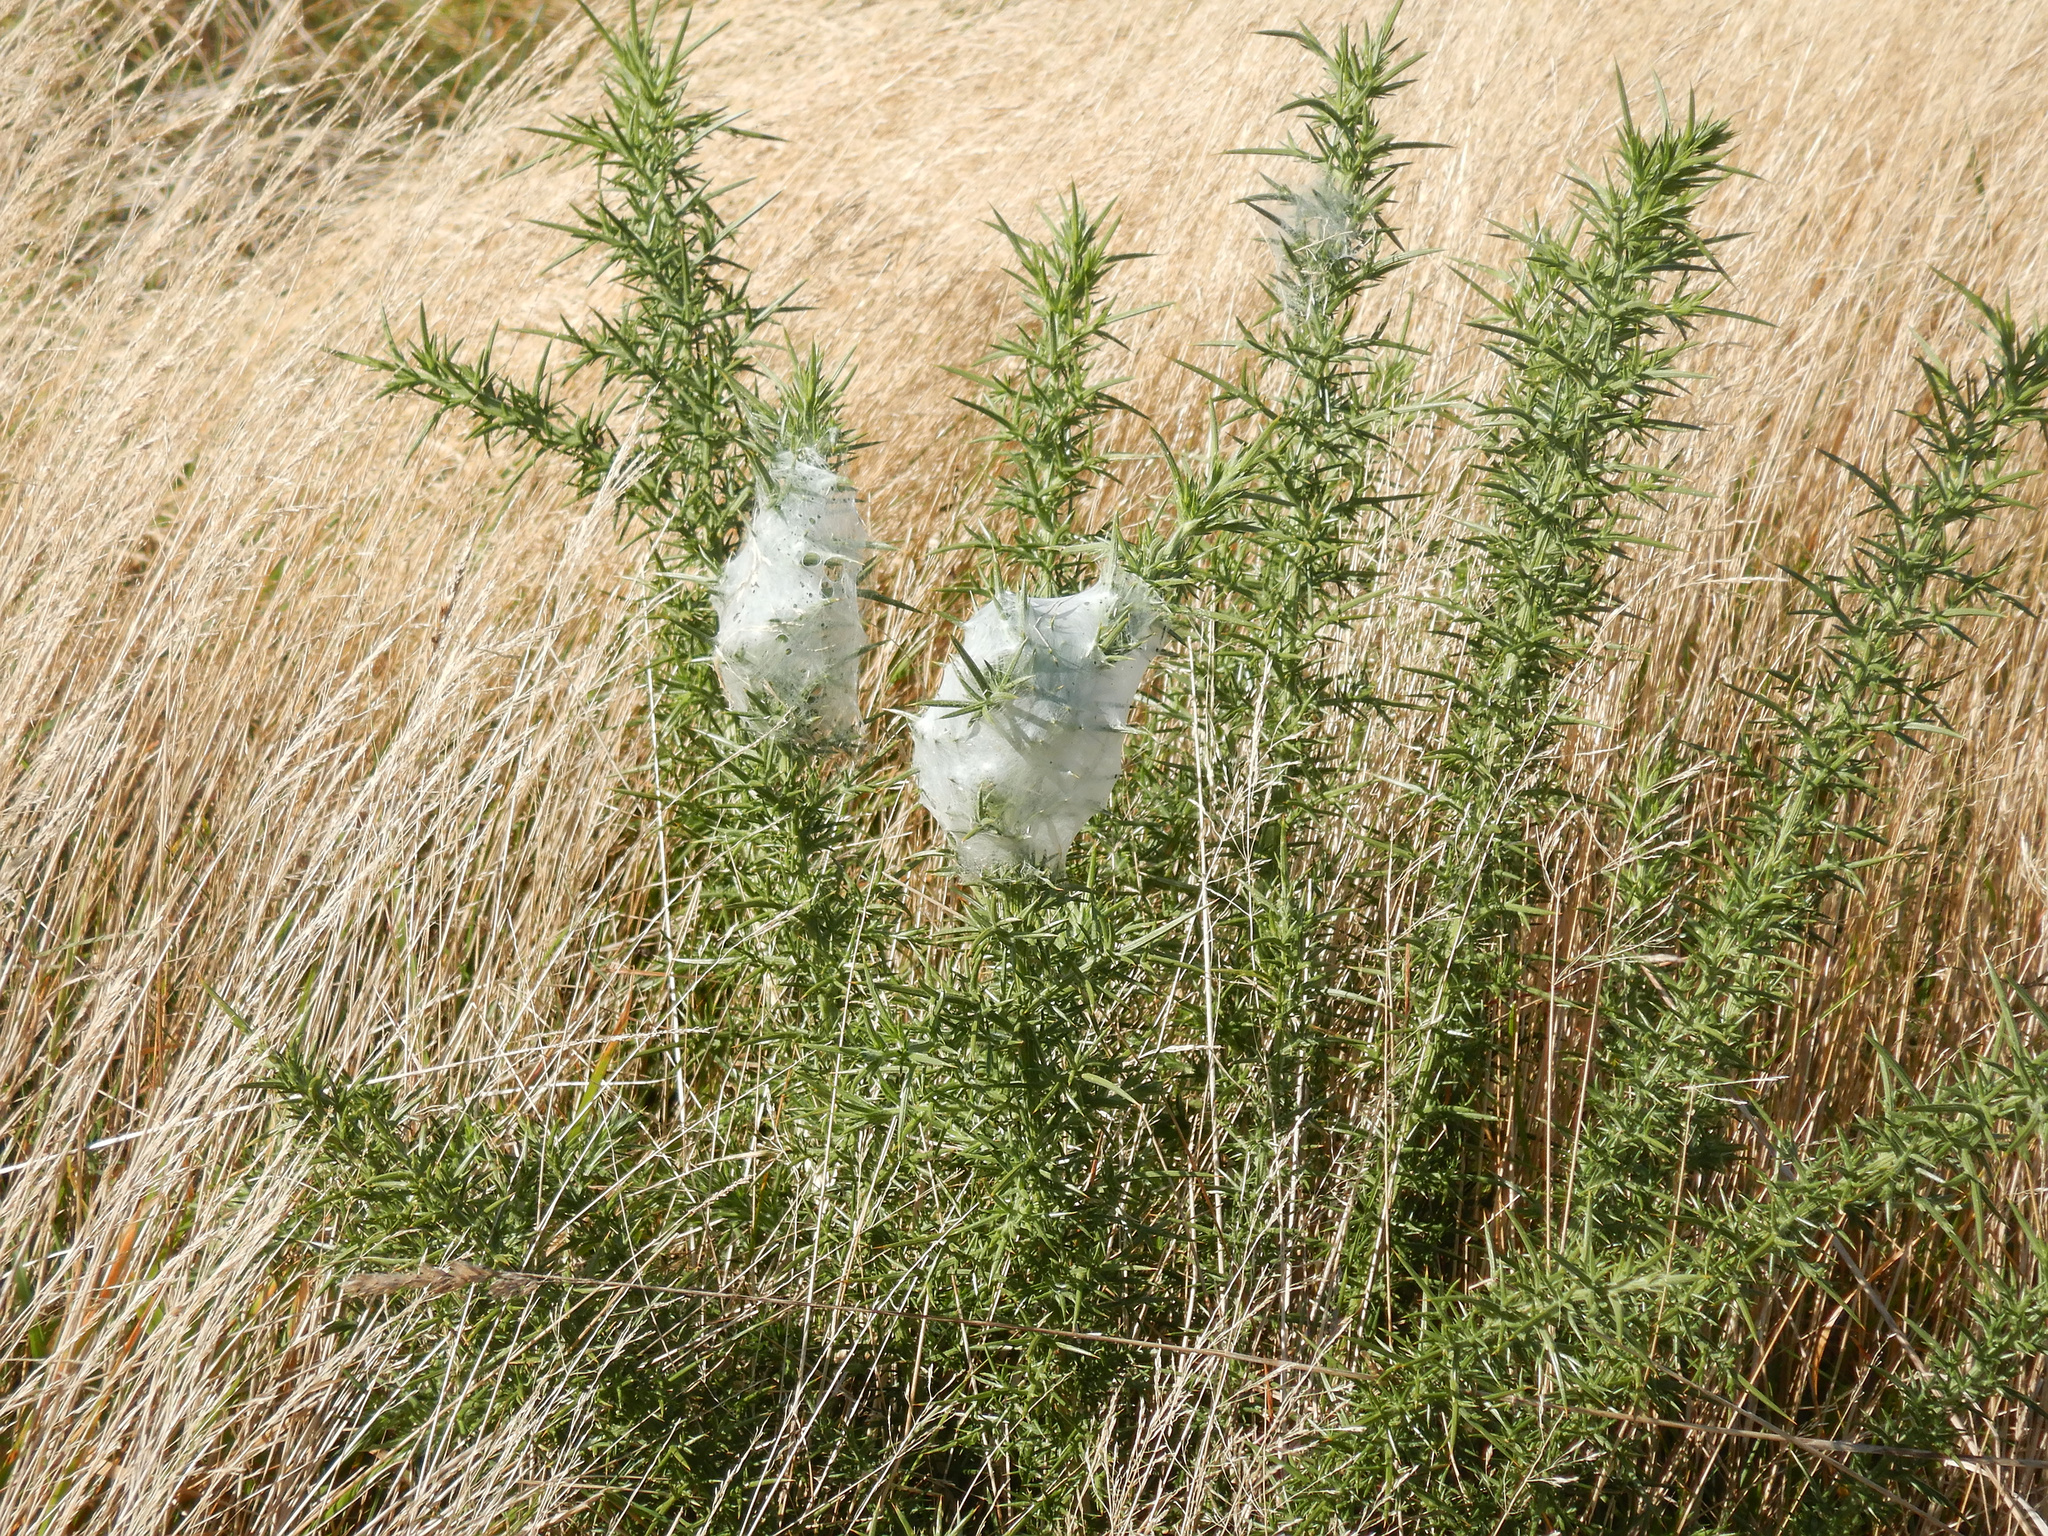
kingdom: Animalia
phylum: Arthropoda
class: Arachnida
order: Araneae
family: Pisauridae
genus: Dolomedes
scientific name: Dolomedes minor
